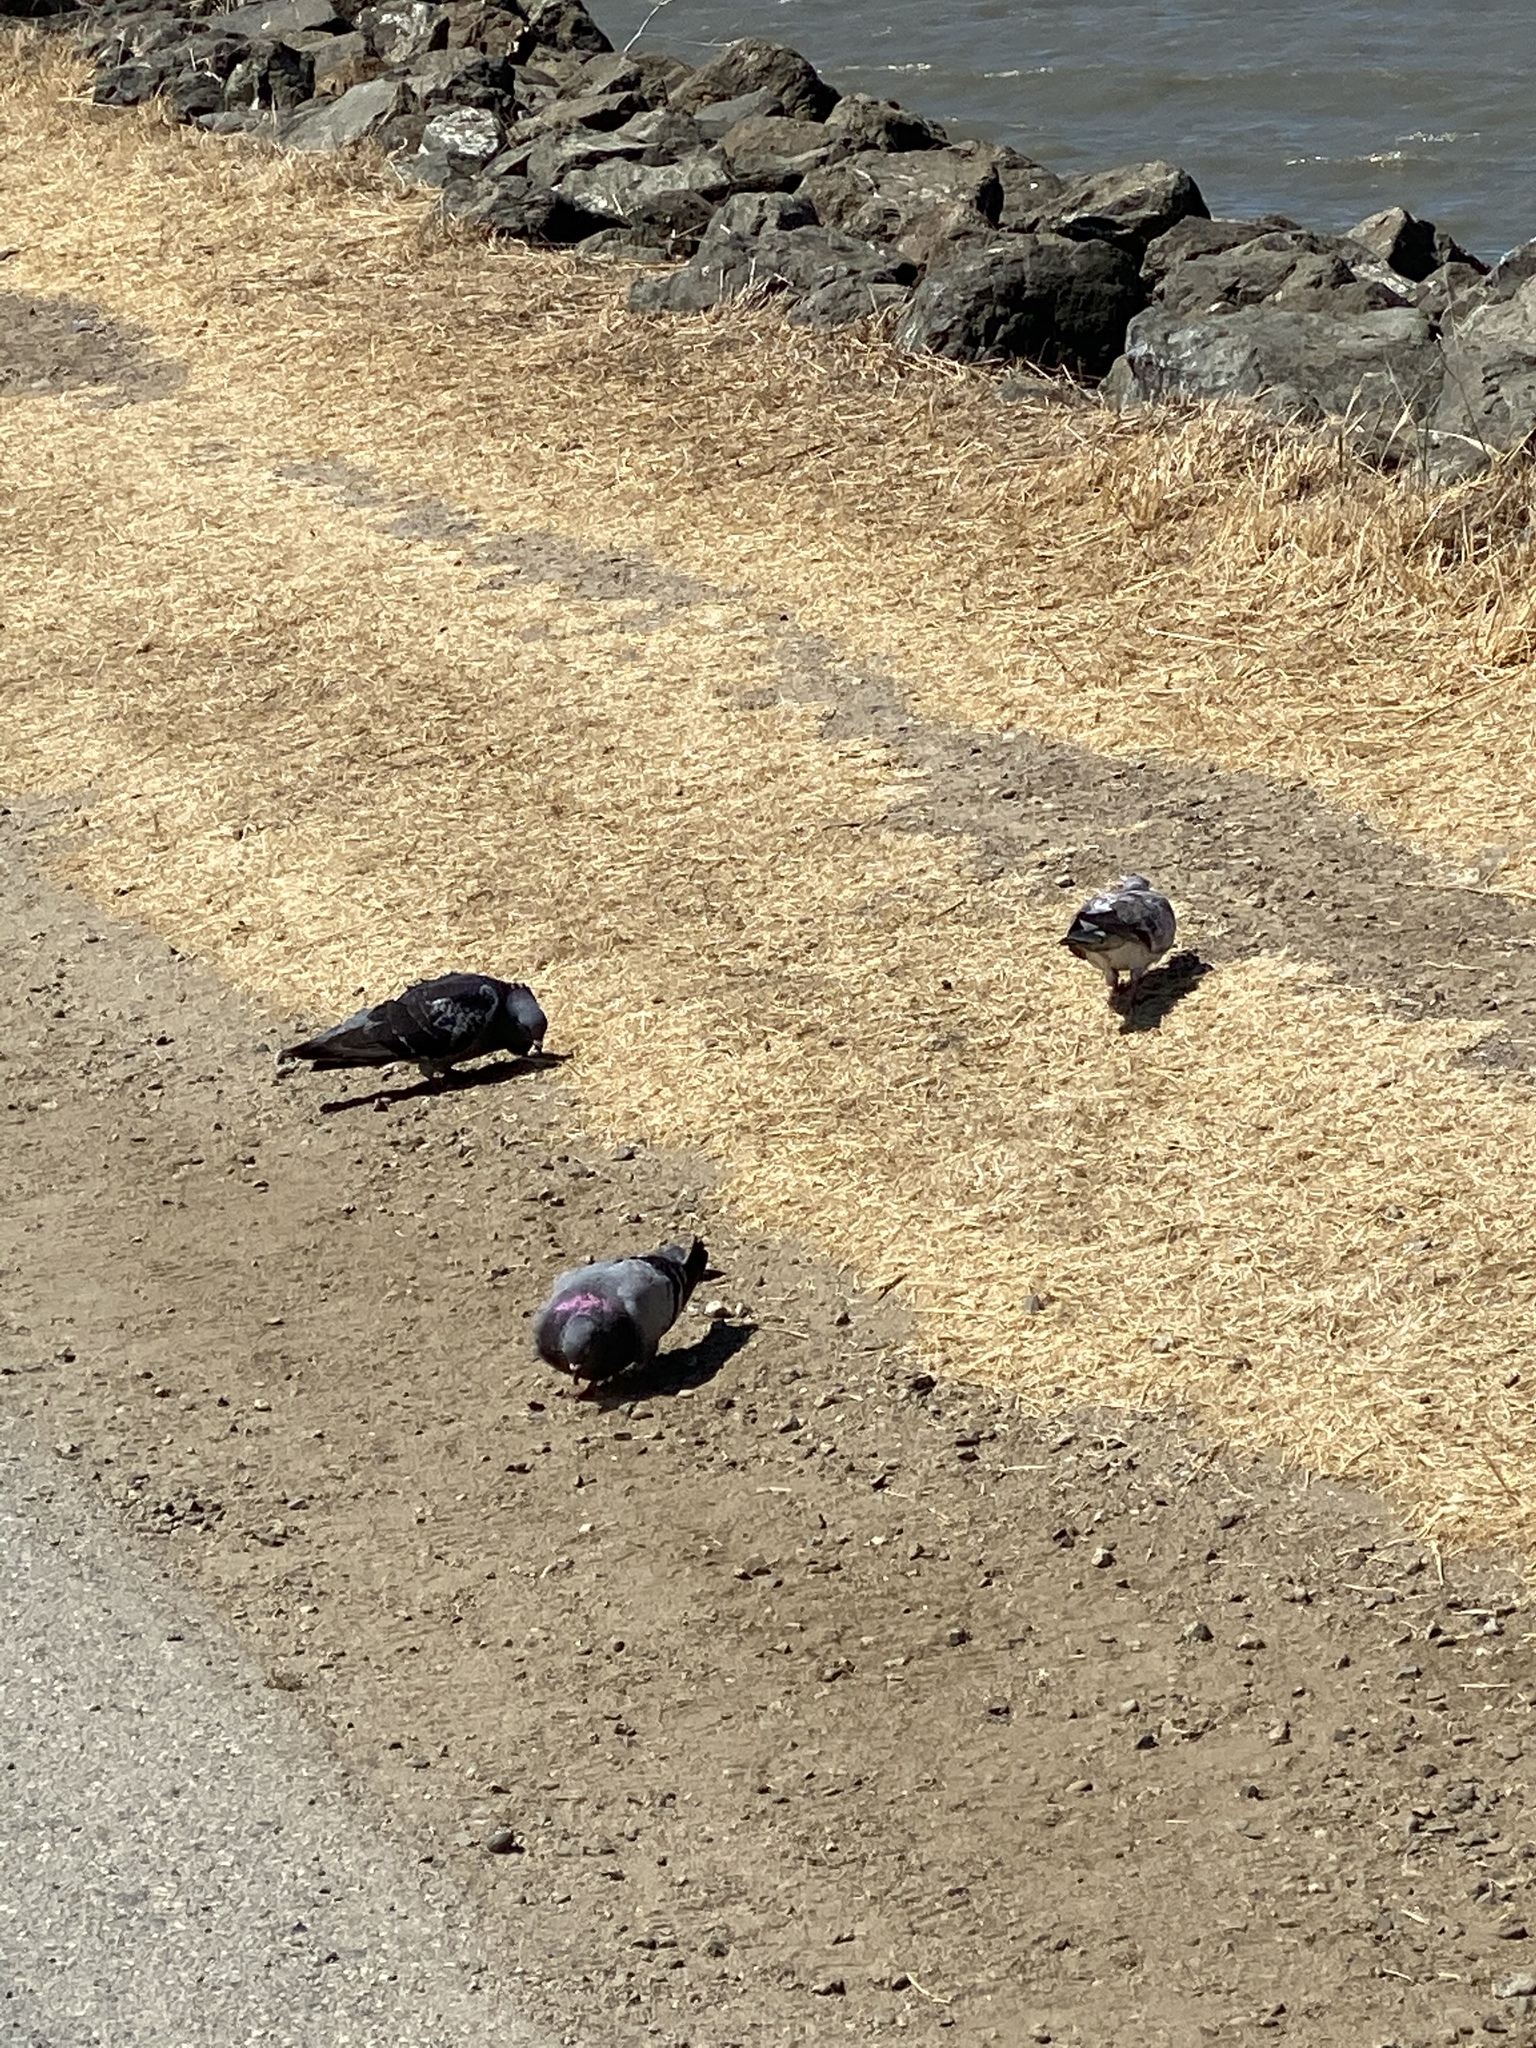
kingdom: Animalia
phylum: Chordata
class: Aves
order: Columbiformes
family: Columbidae
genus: Columba
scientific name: Columba livia
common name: Rock pigeon
